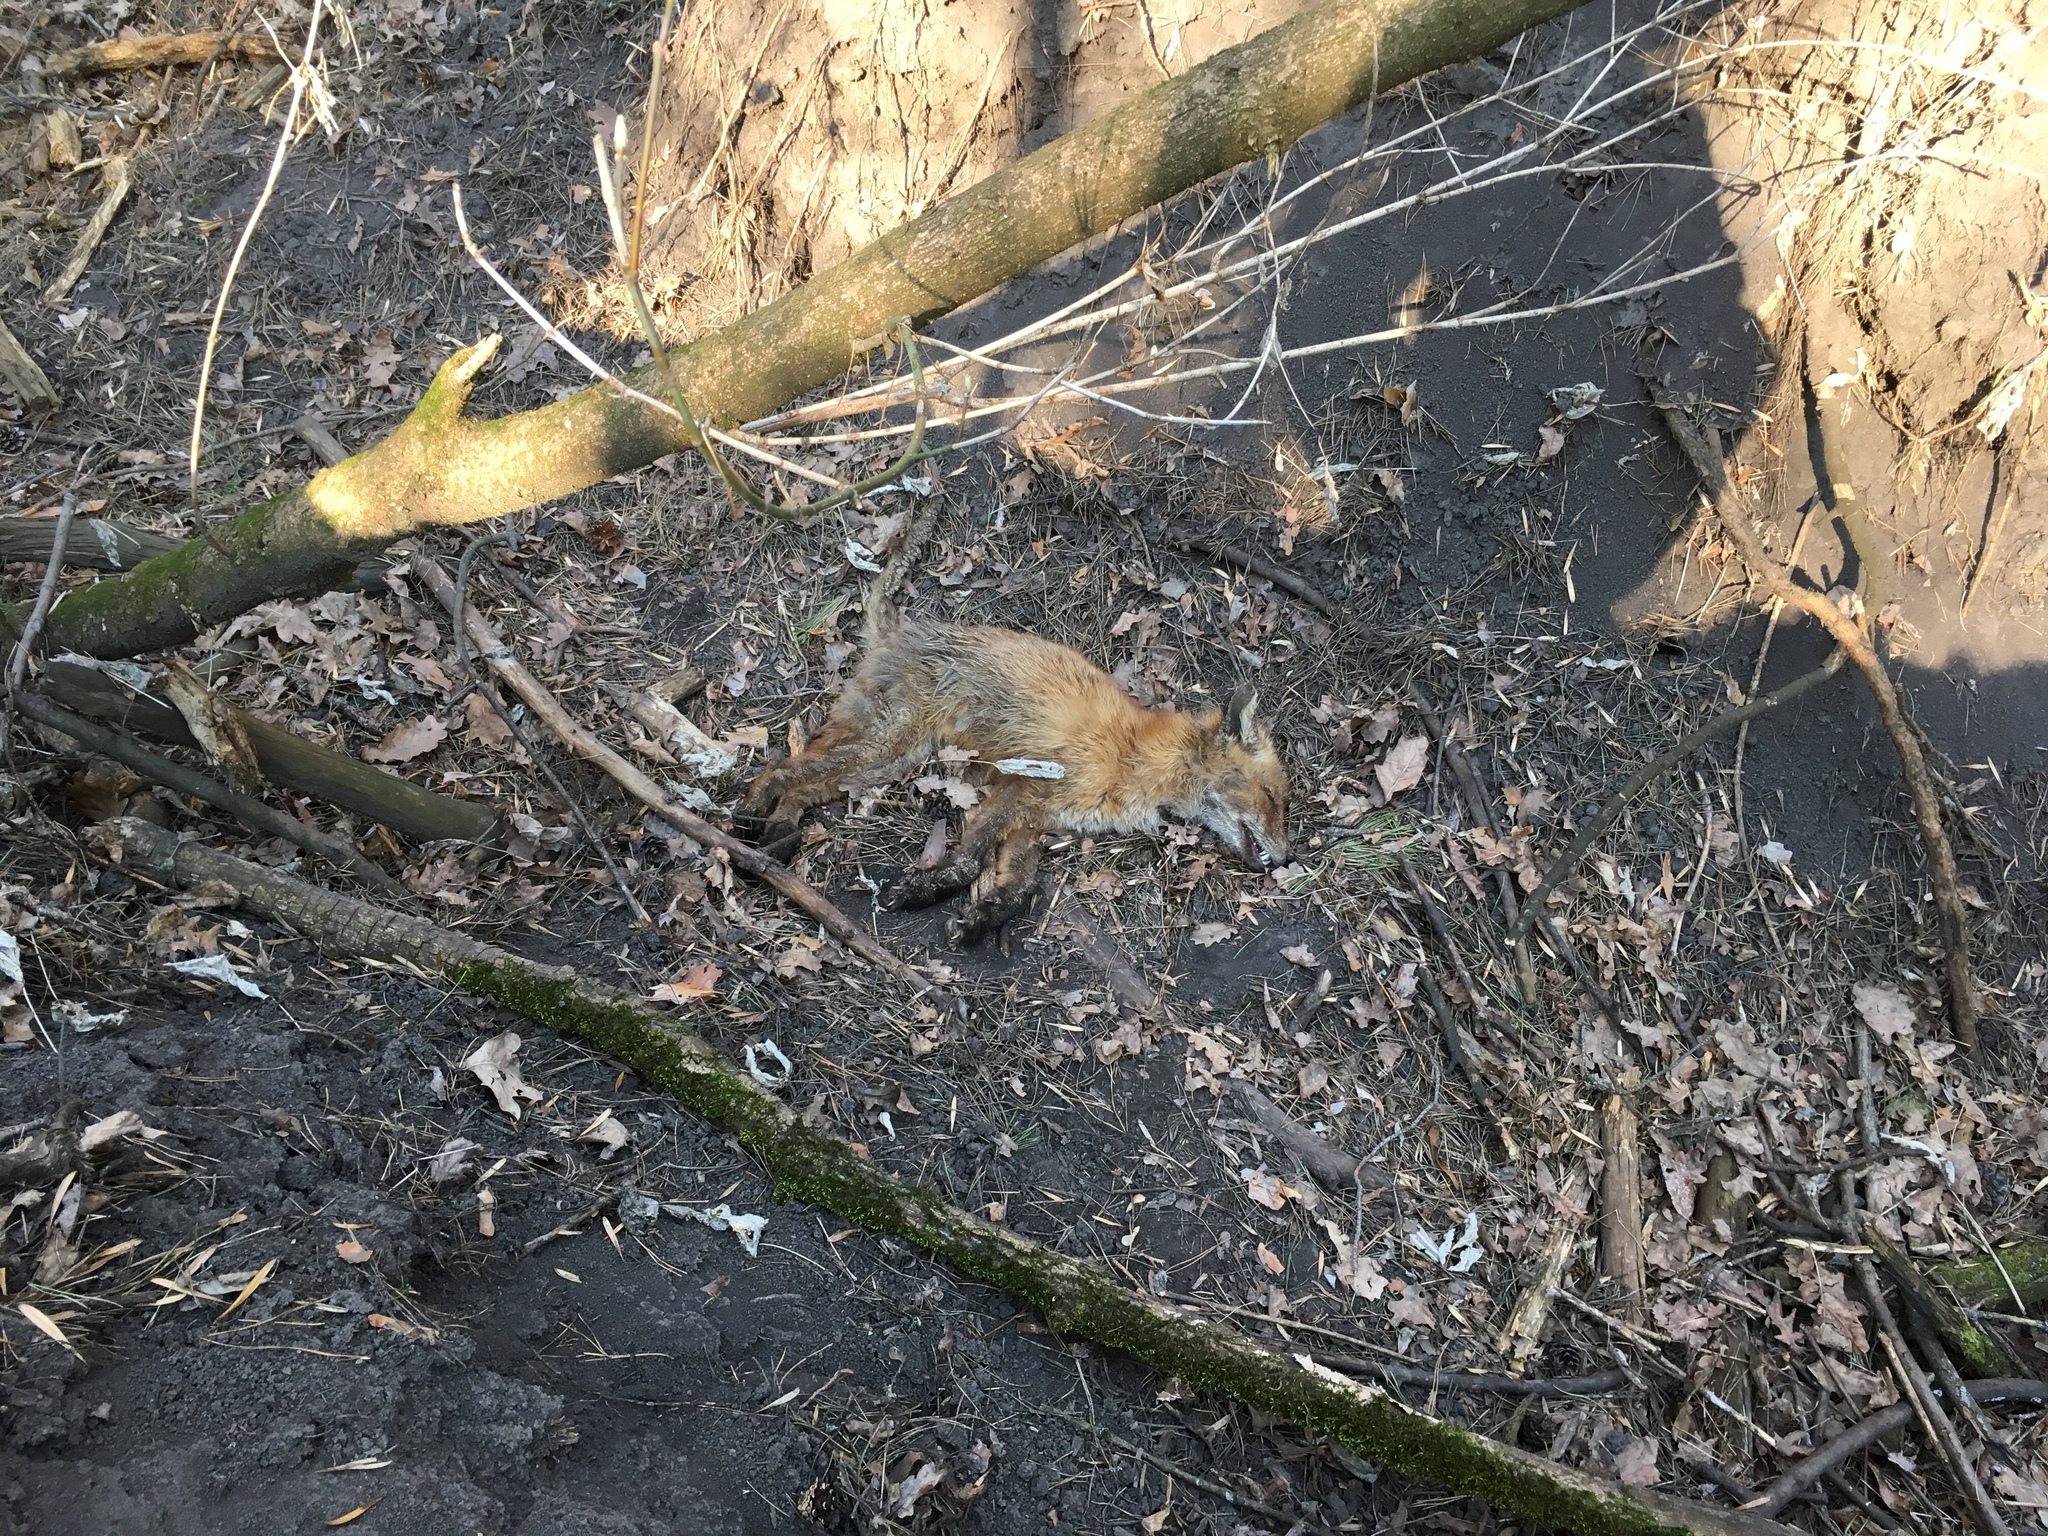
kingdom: Animalia
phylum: Chordata
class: Mammalia
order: Carnivora
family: Canidae
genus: Vulpes
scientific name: Vulpes vulpes
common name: Red fox
